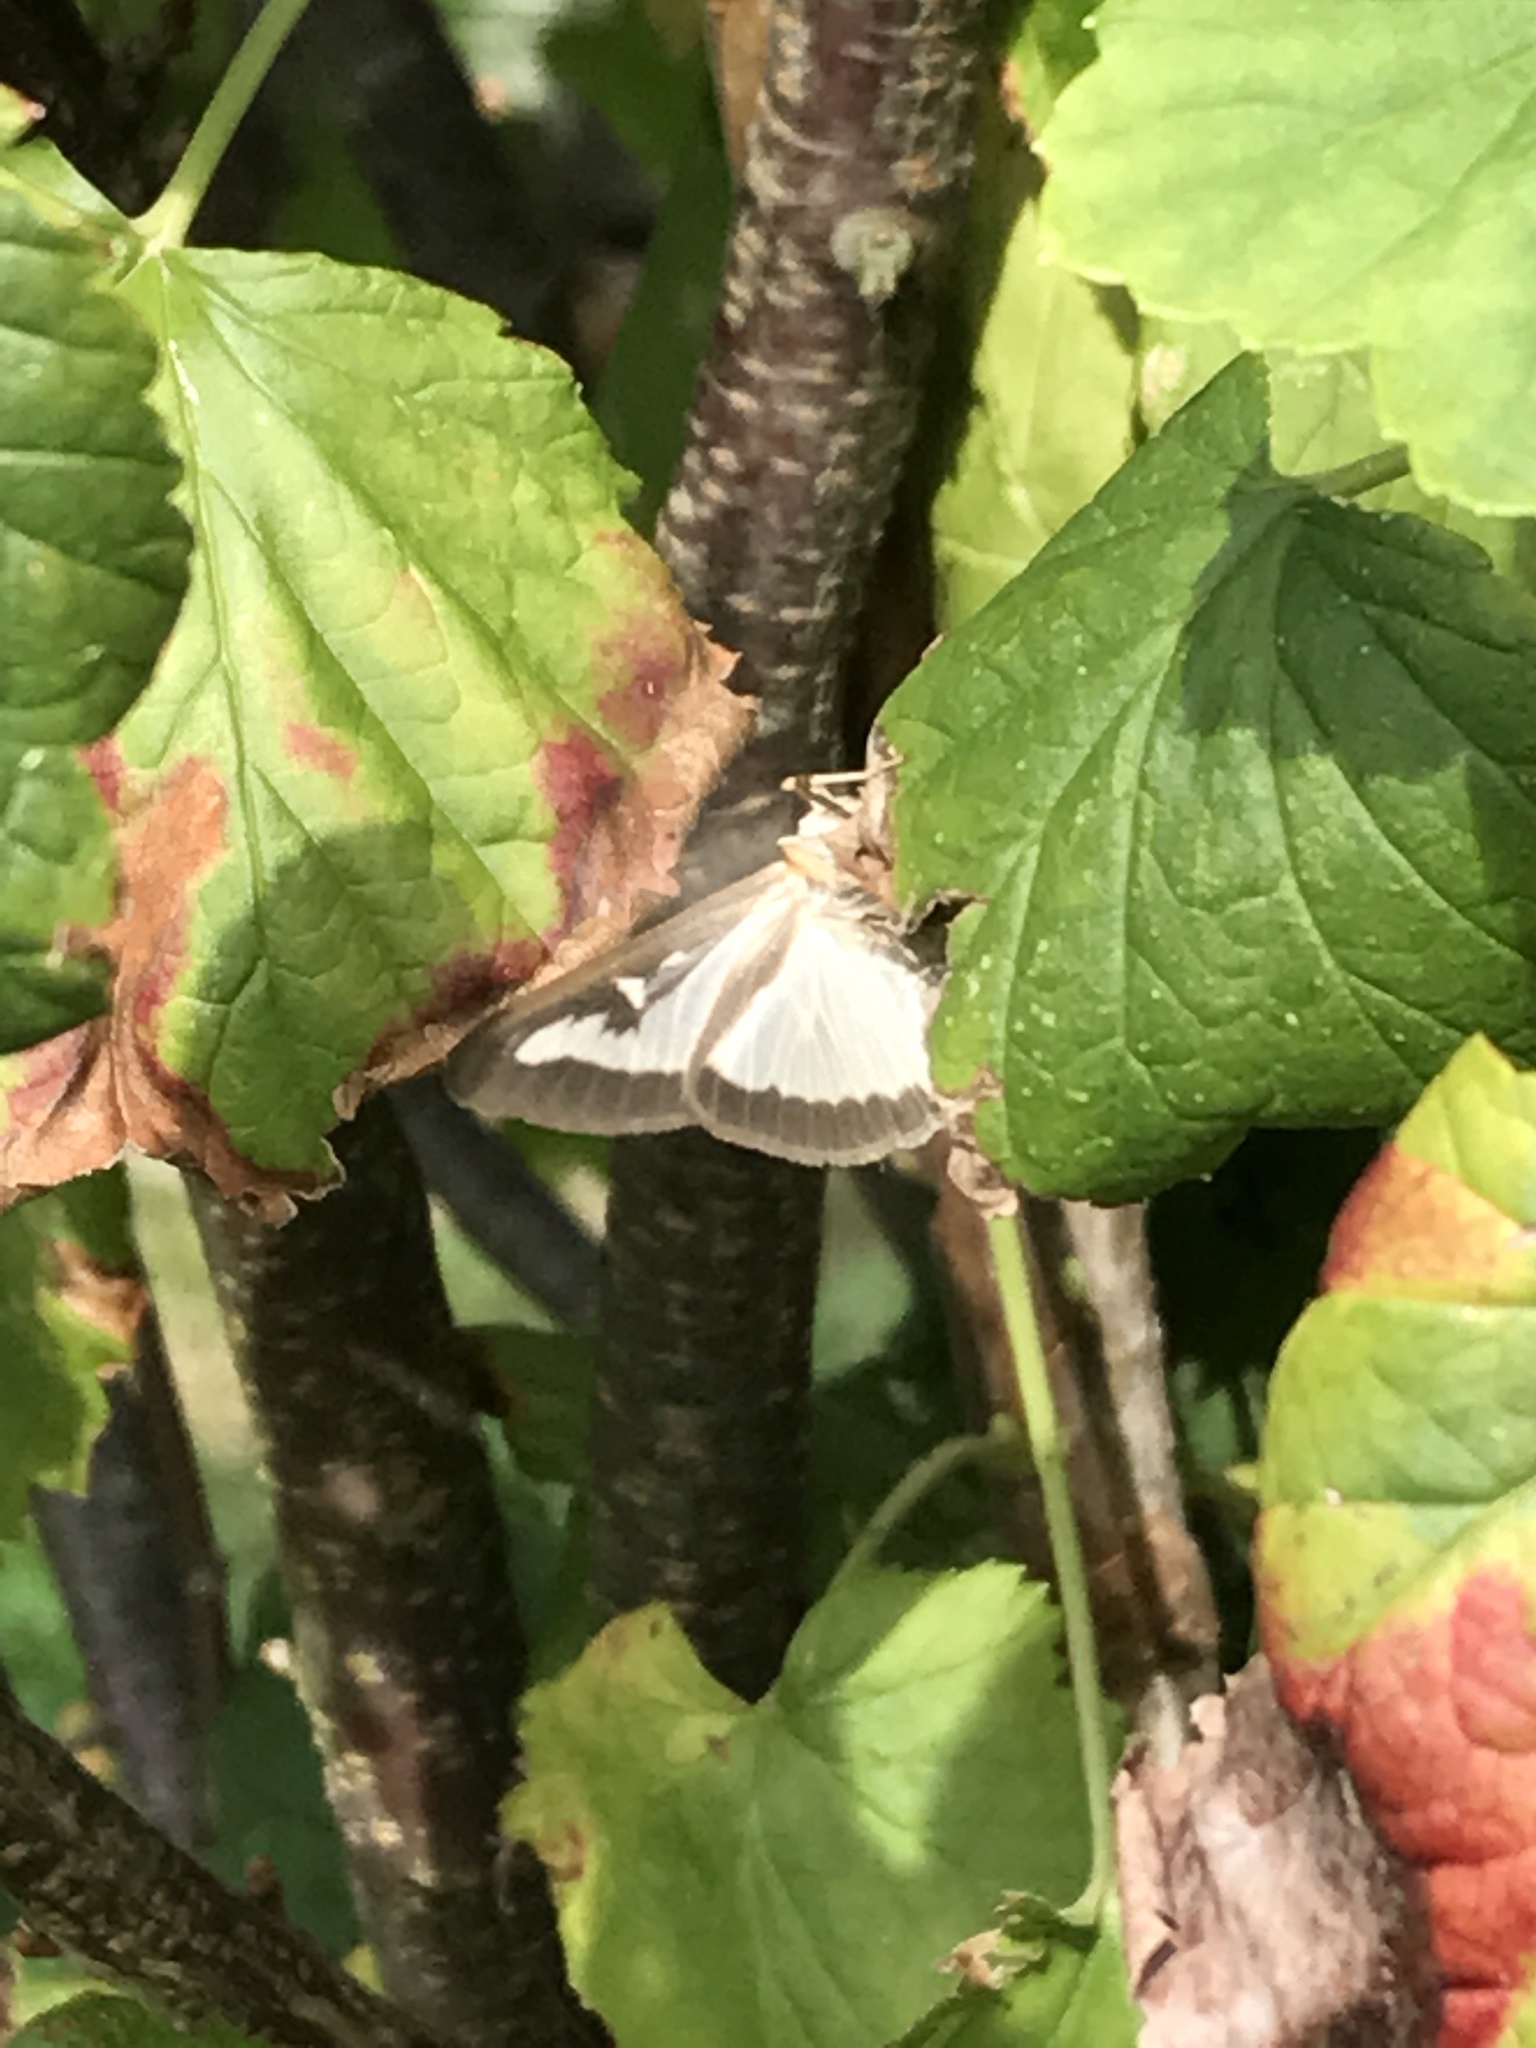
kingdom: Animalia
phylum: Arthropoda
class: Insecta
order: Lepidoptera
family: Crambidae
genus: Cydalima
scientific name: Cydalima perspectalis
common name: Box tree moth
